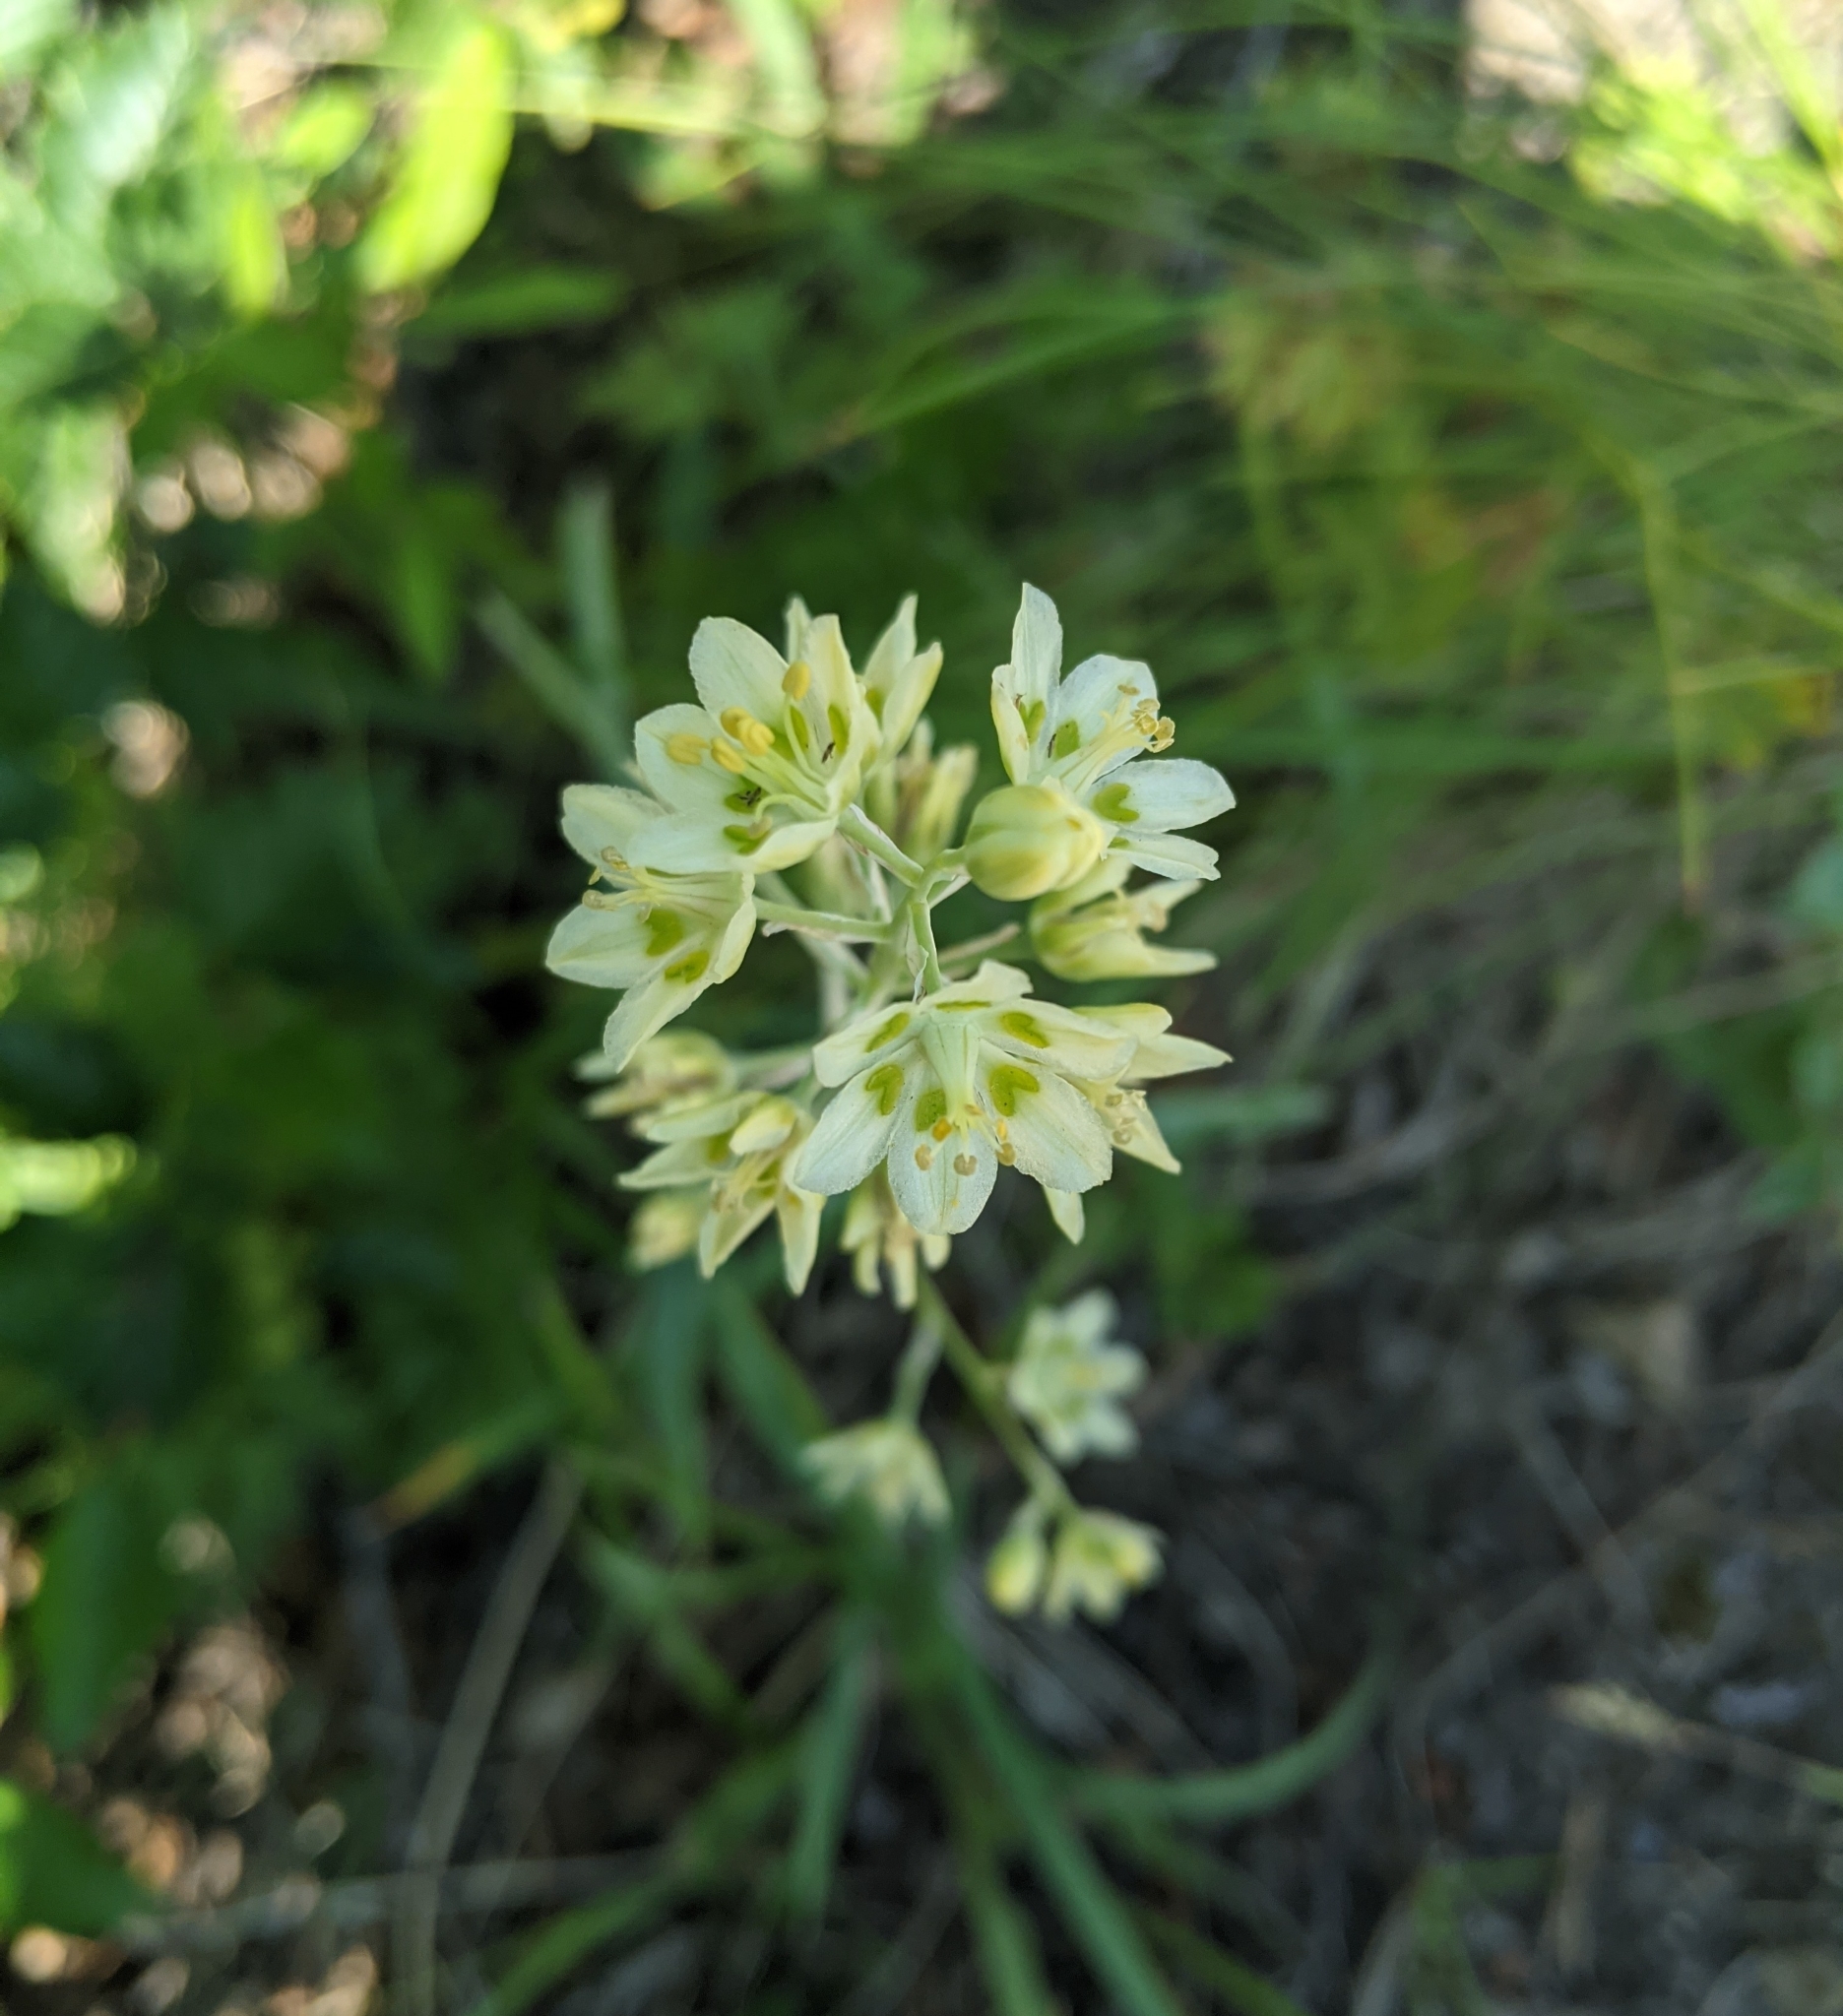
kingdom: Plantae
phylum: Tracheophyta
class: Liliopsida
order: Liliales
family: Melanthiaceae
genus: Anticlea
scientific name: Anticlea elegans
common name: Mountain death camas
